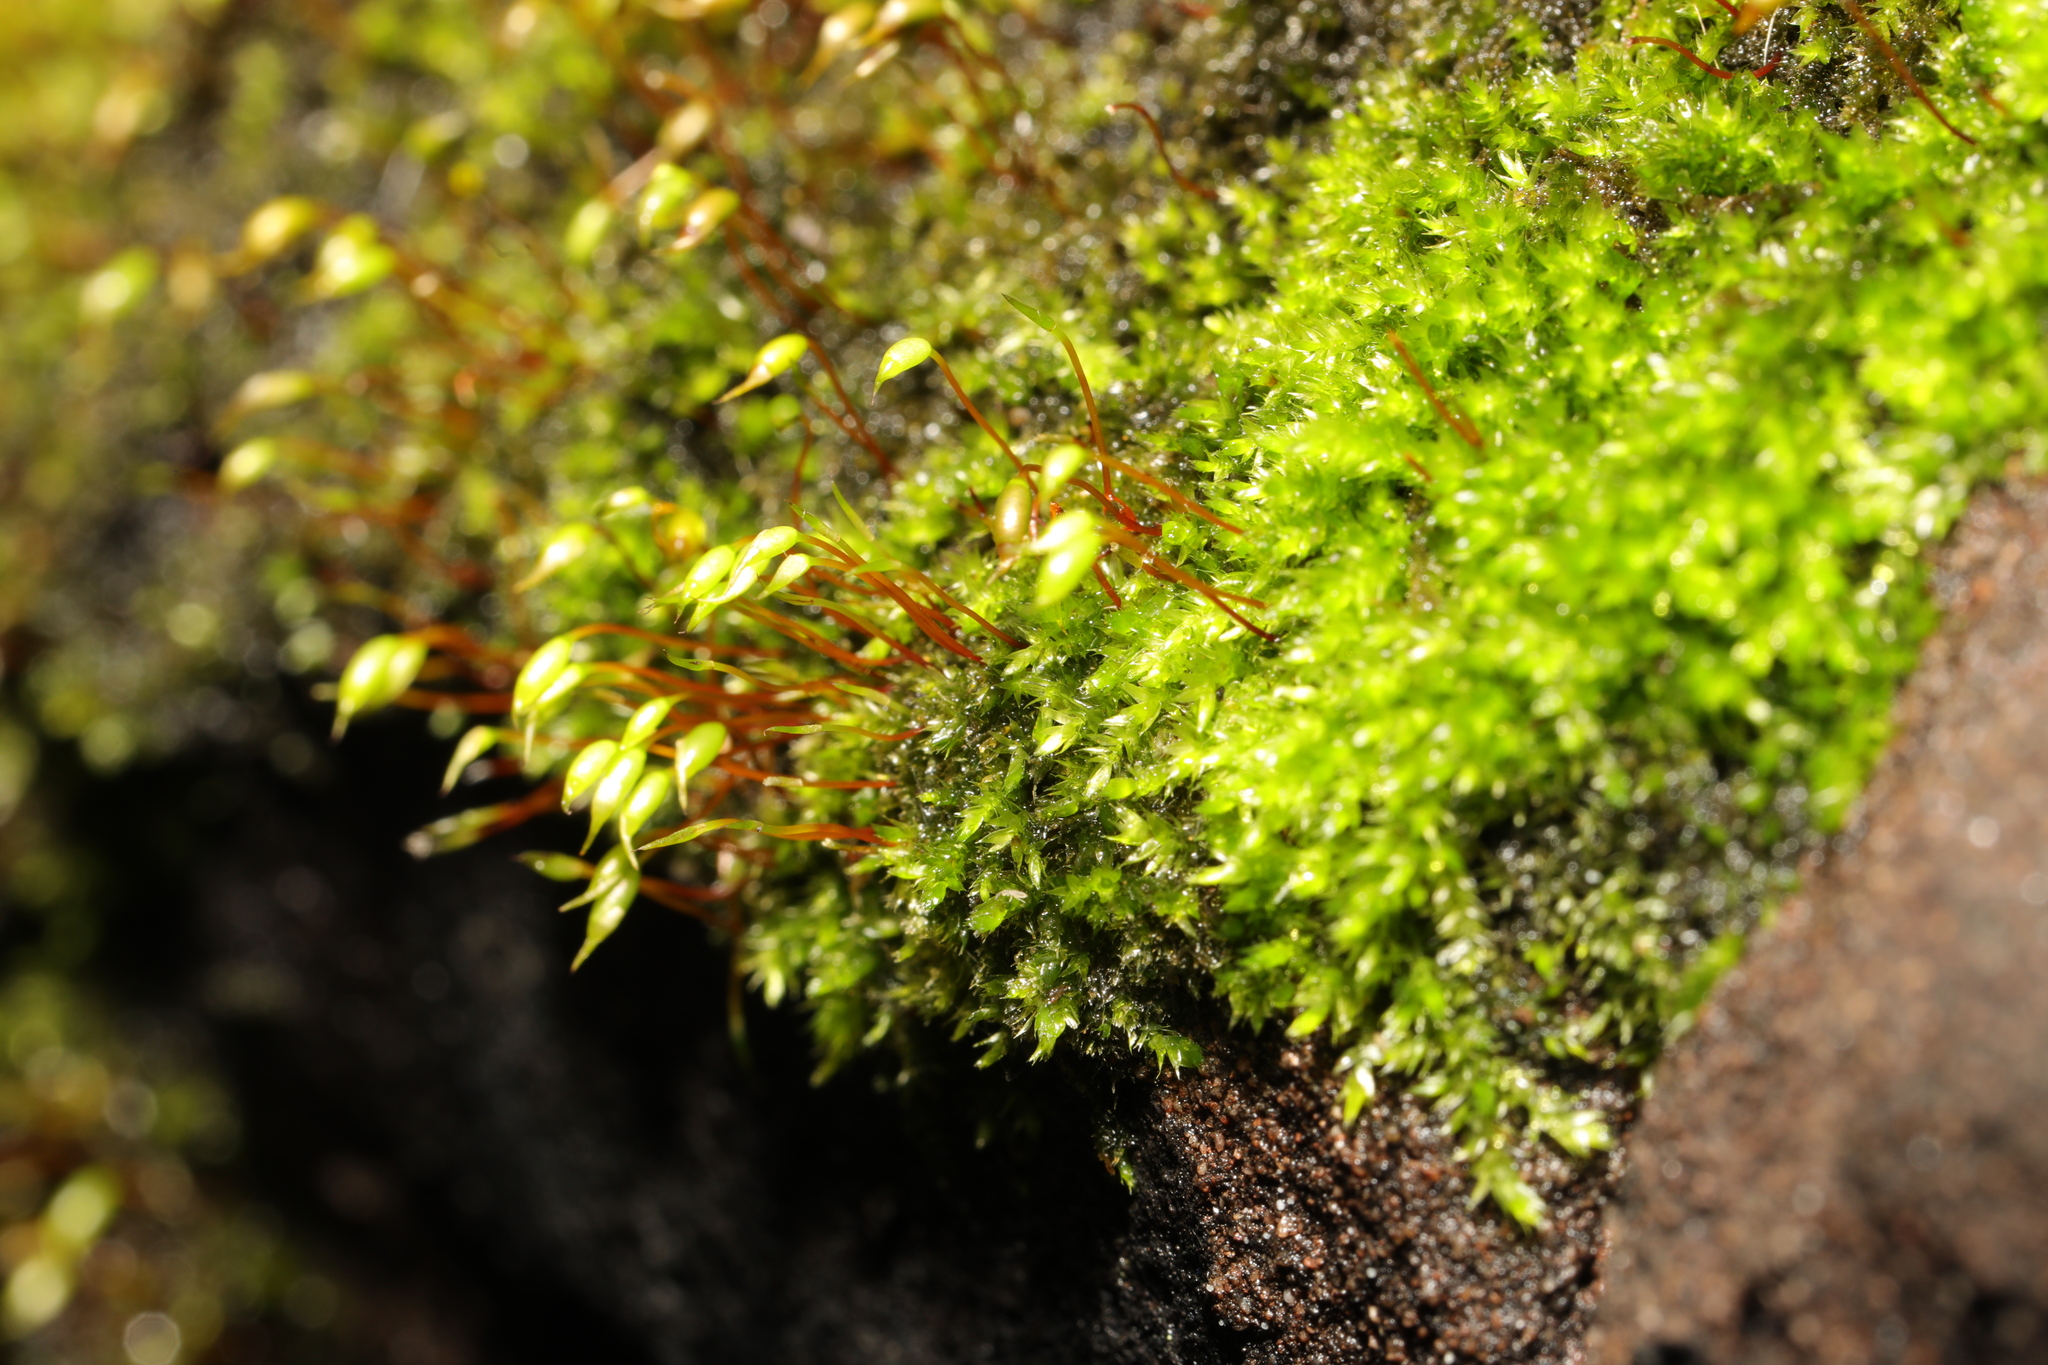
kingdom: Plantae
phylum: Bryophyta
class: Bryopsida
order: Hypnales
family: Brachytheciaceae
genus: Rhynchostegium
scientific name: Rhynchostegium confertum
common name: Clustered feather-moss
